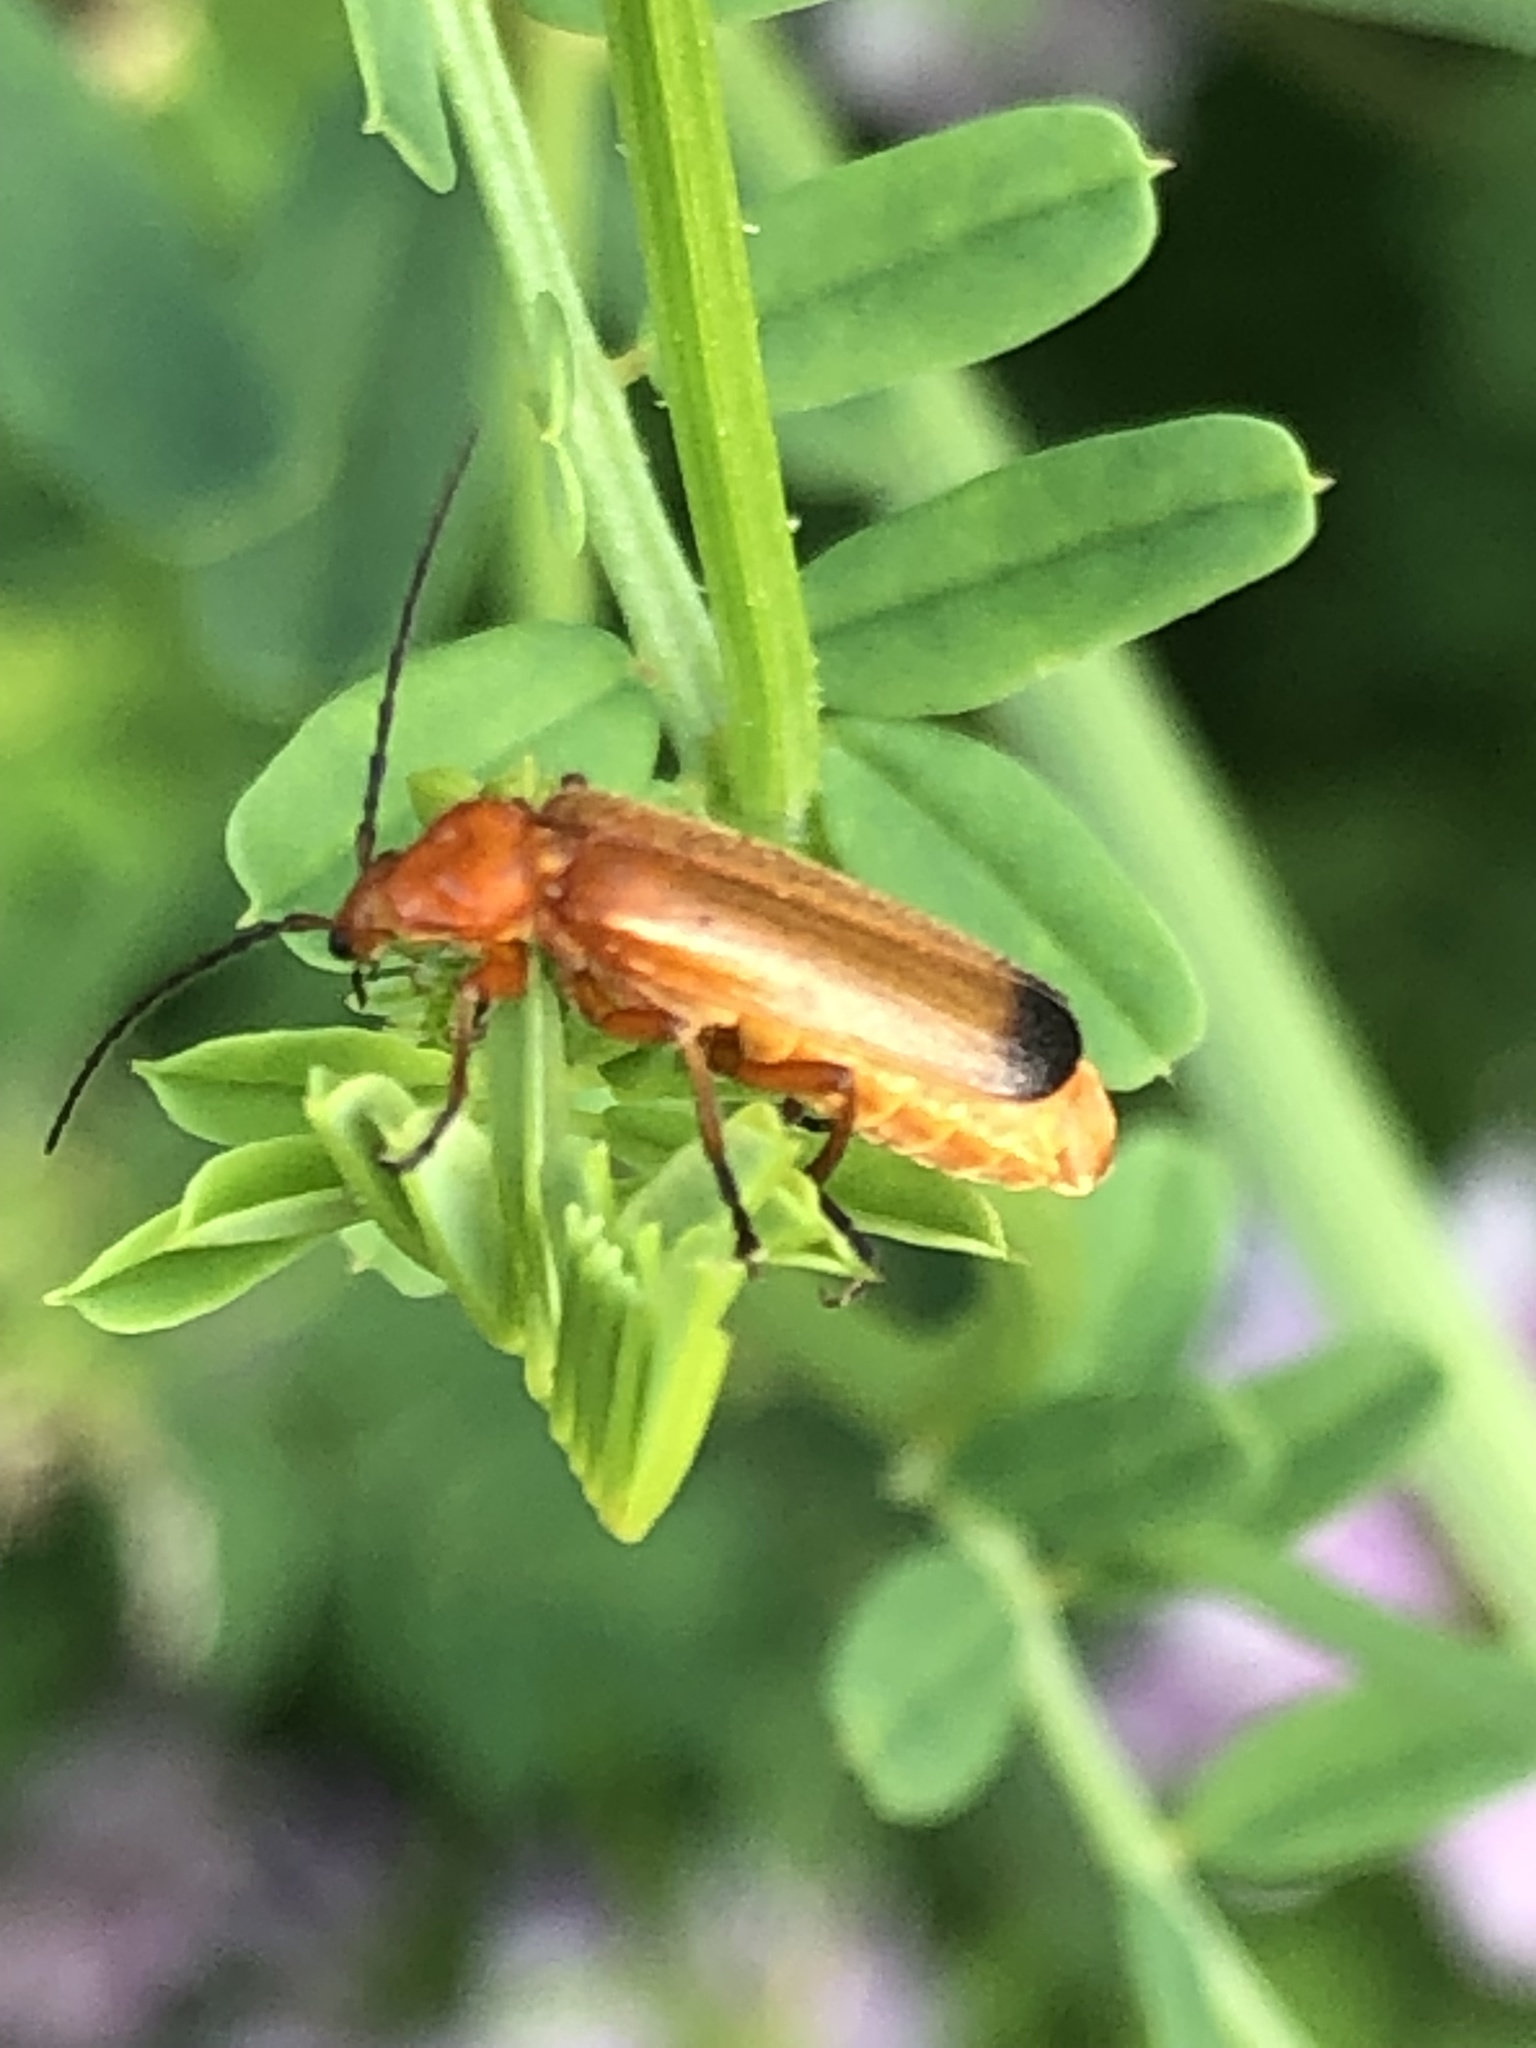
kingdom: Animalia
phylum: Arthropoda
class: Insecta
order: Coleoptera
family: Cantharidae
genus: Rhagonycha
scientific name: Rhagonycha fulva
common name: Common red soldier beetle
